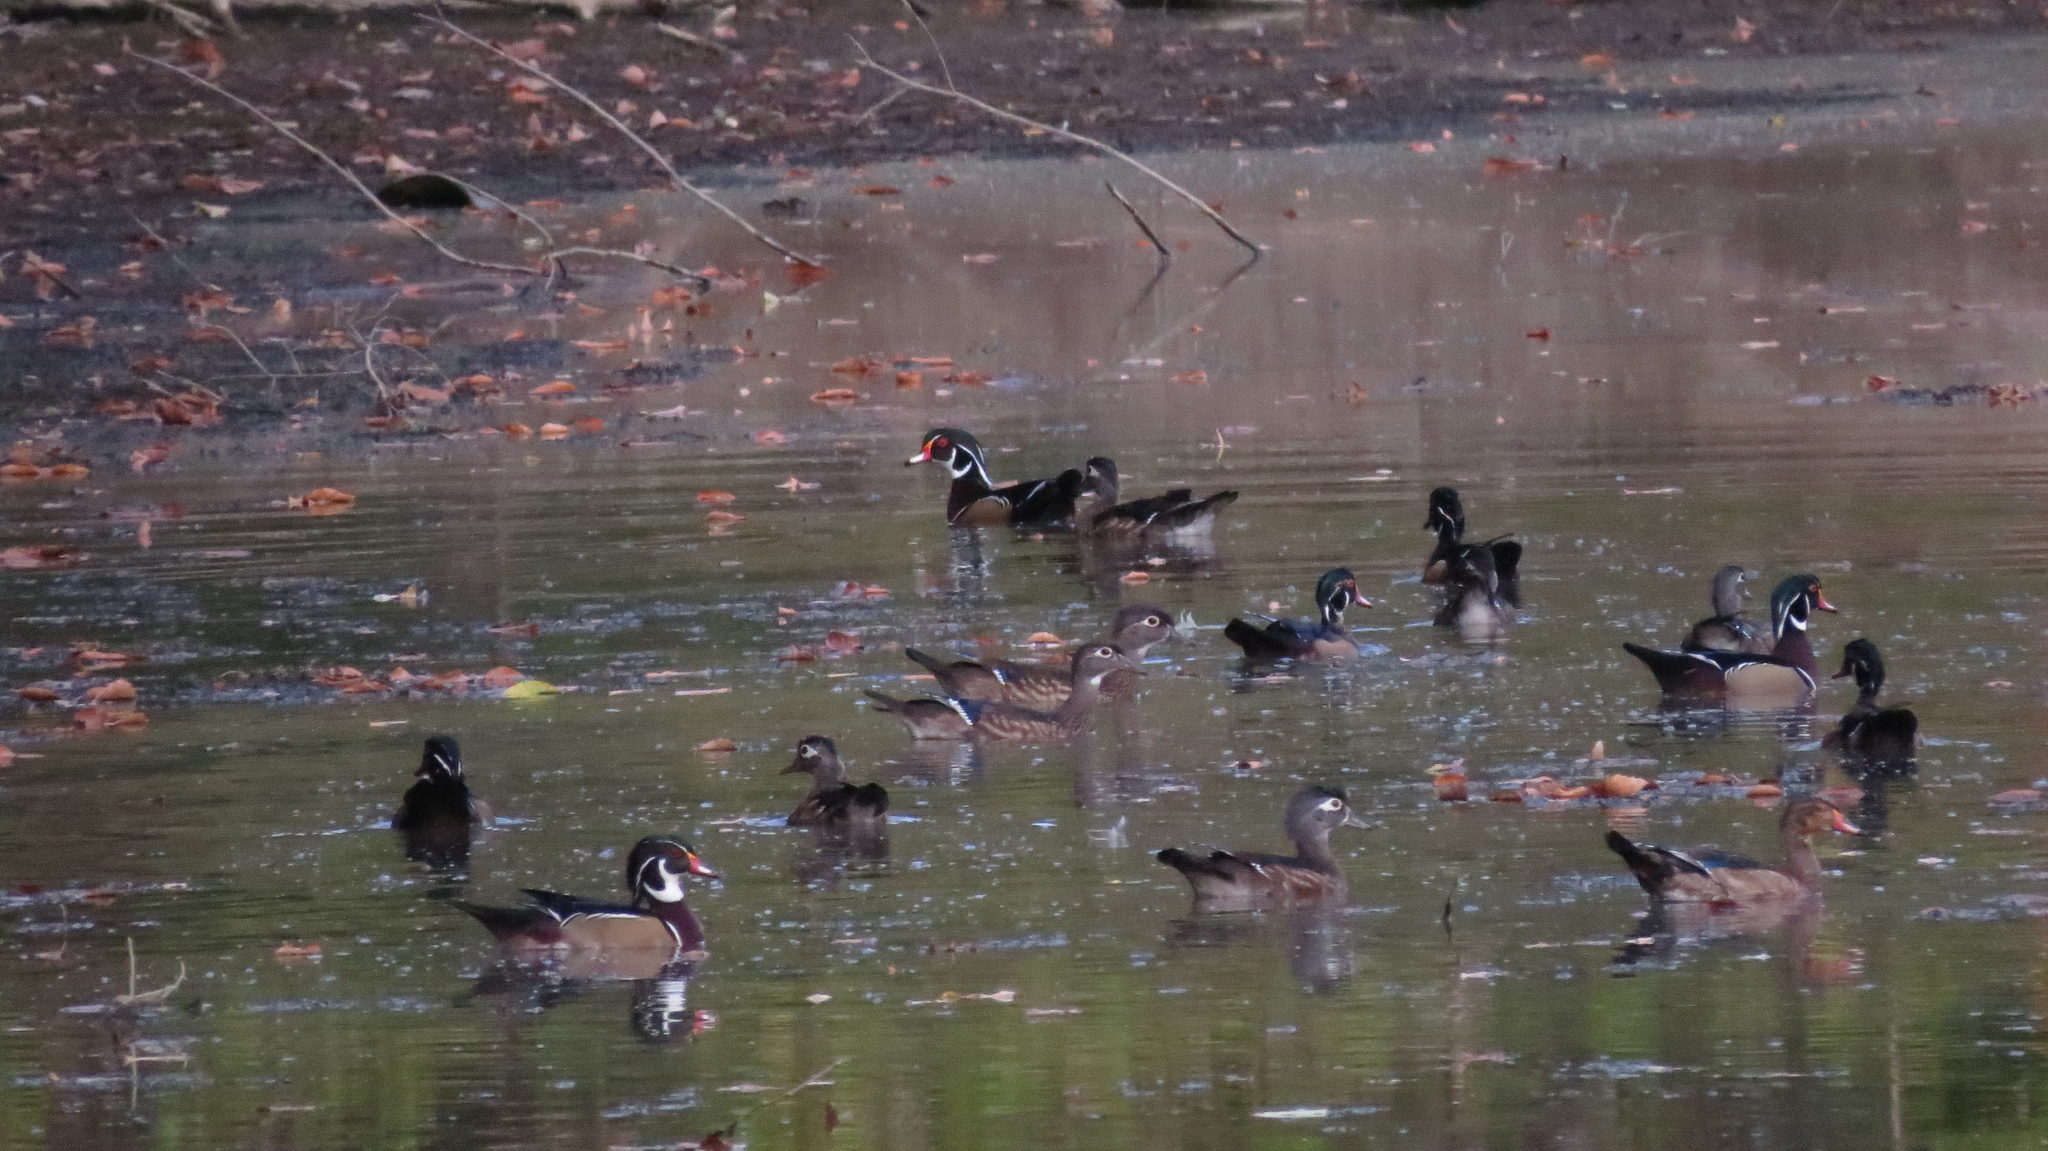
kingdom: Animalia
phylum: Chordata
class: Aves
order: Anseriformes
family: Anatidae
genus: Aix
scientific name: Aix sponsa
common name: Wood duck
